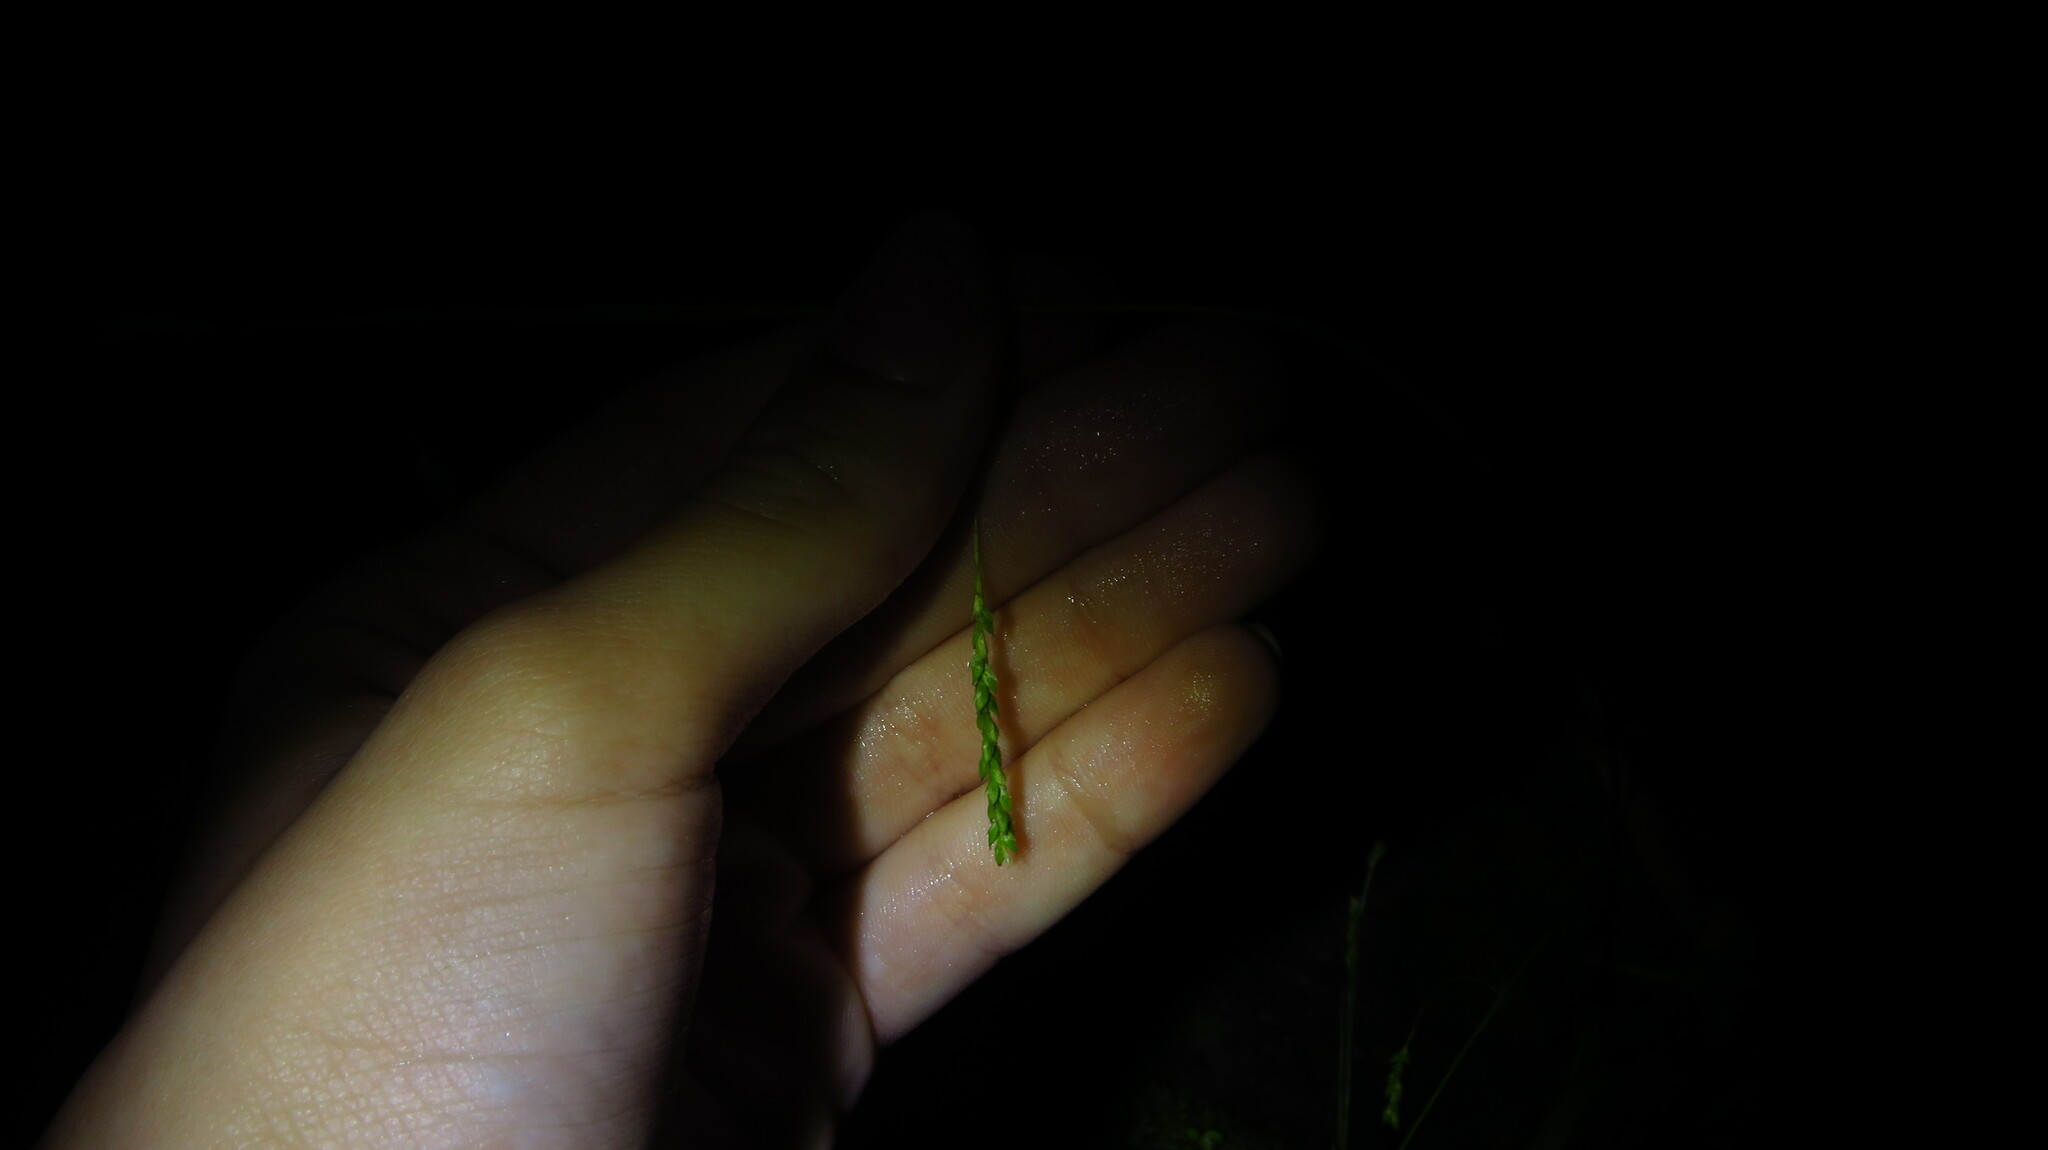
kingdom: Plantae
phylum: Tracheophyta
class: Liliopsida
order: Poales
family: Cyperaceae
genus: Carex
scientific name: Carex gracillima
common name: Graceful sedge
